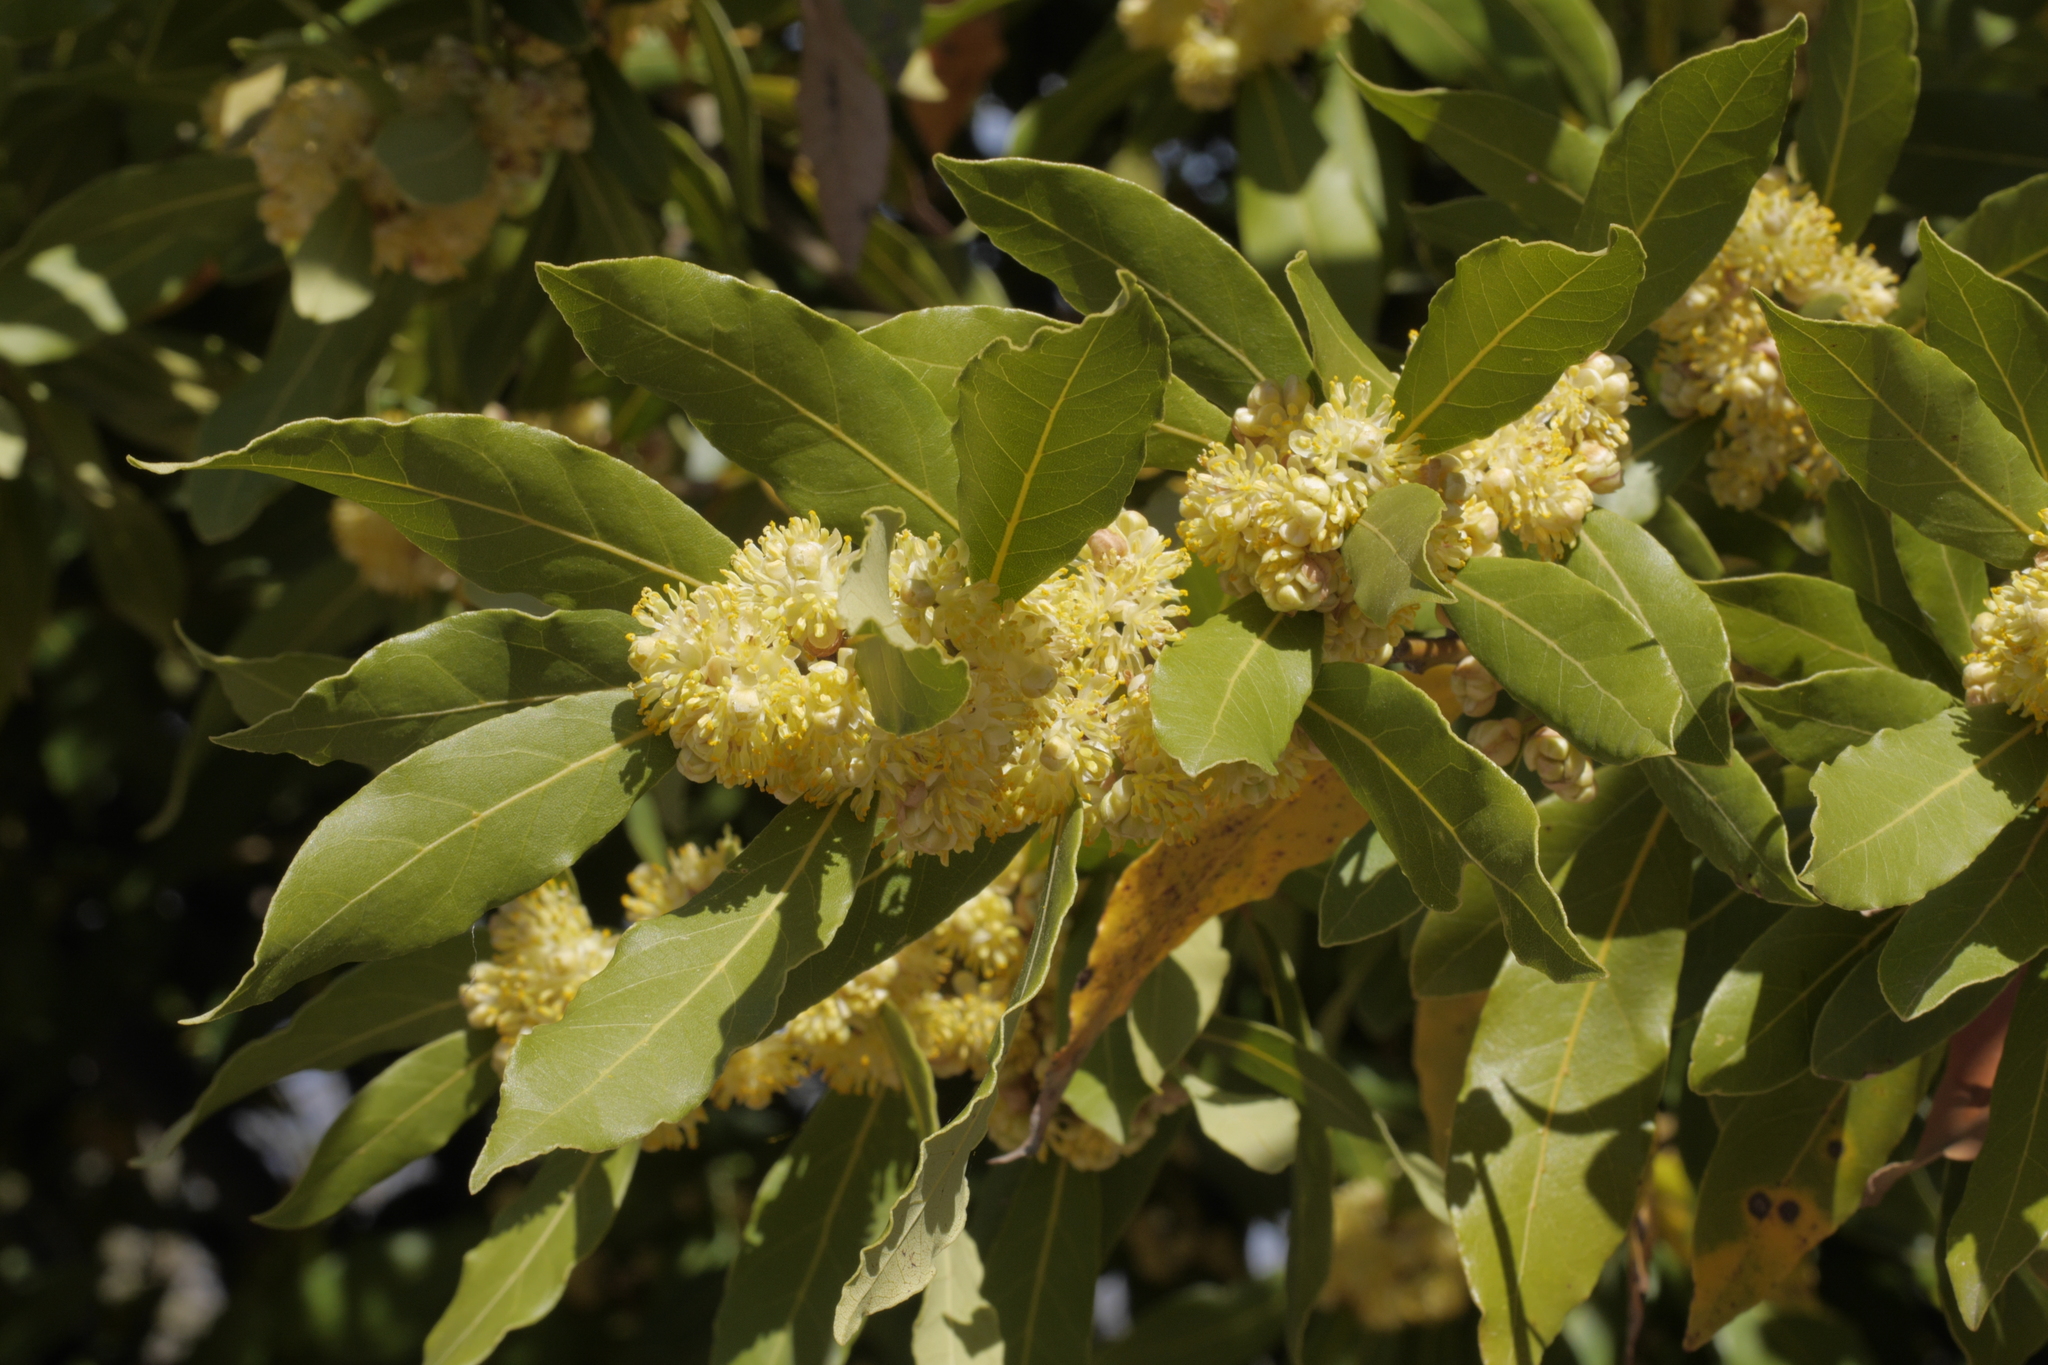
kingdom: Plantae
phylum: Tracheophyta
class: Magnoliopsida
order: Laurales
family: Lauraceae
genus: Laurus
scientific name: Laurus nobilis
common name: Bay
